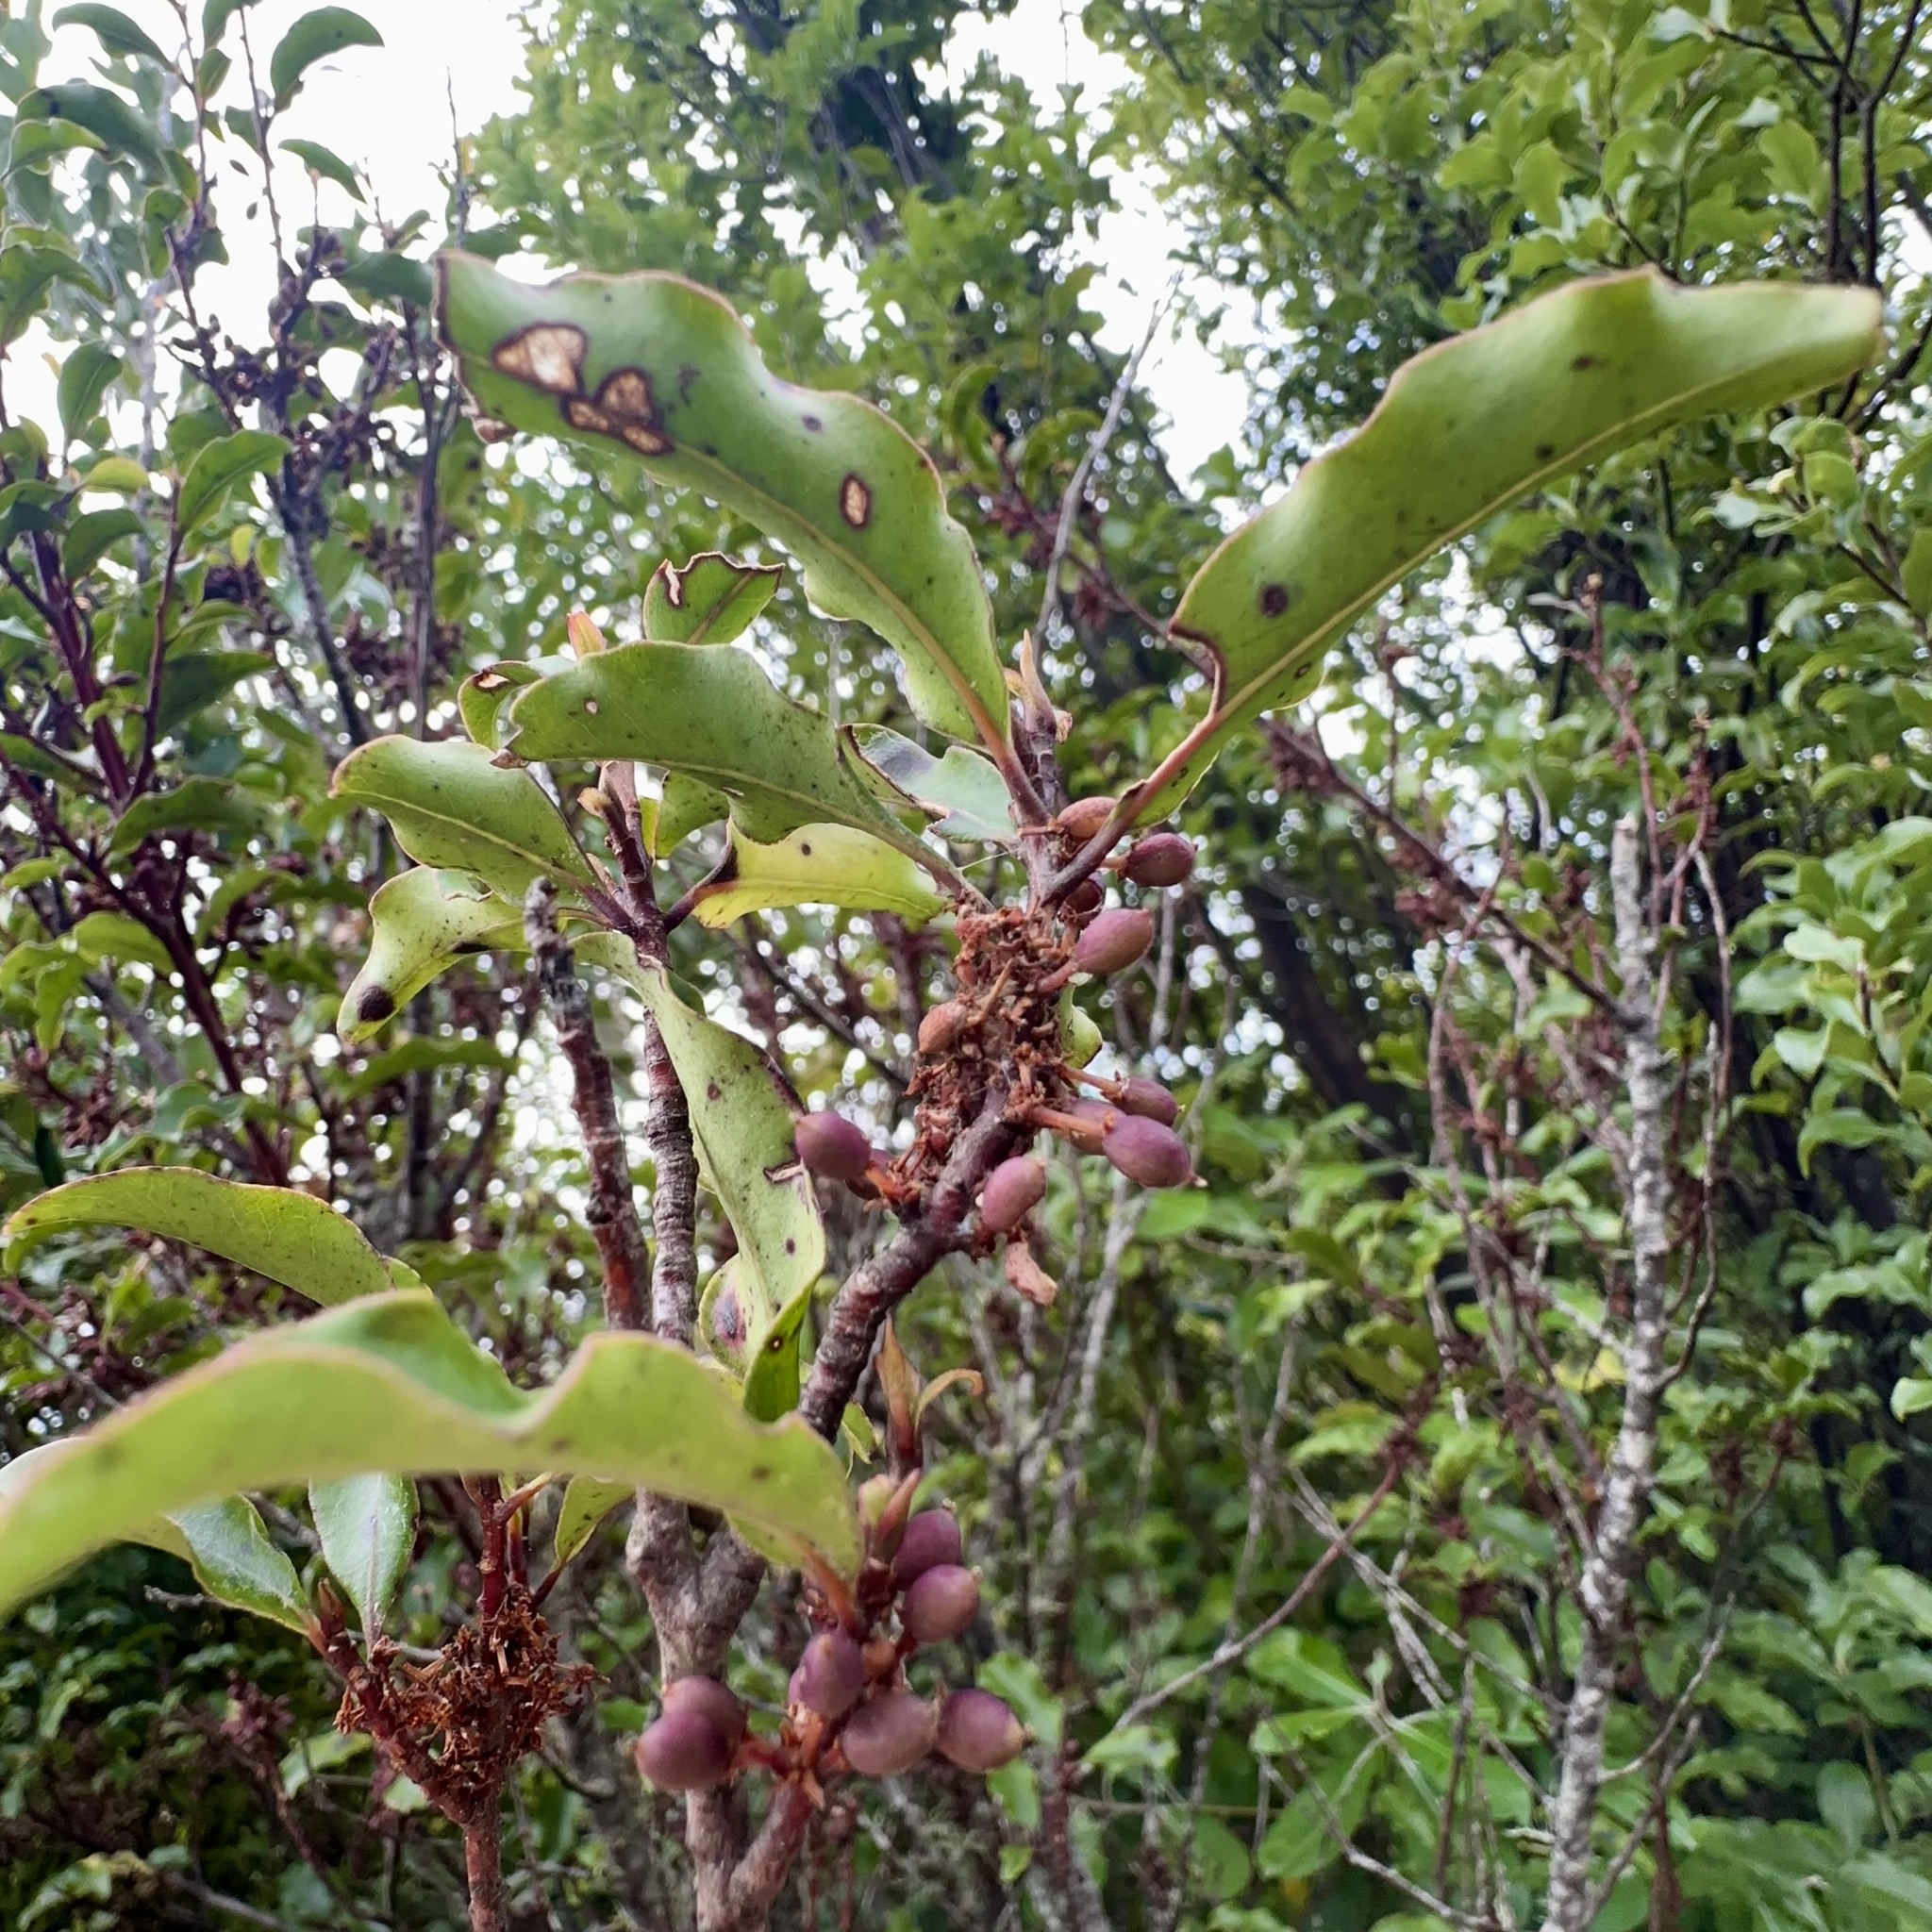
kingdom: Plantae
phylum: Tracheophyta
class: Magnoliopsida
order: Ericales
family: Primulaceae
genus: Myrsine
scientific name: Myrsine australis
